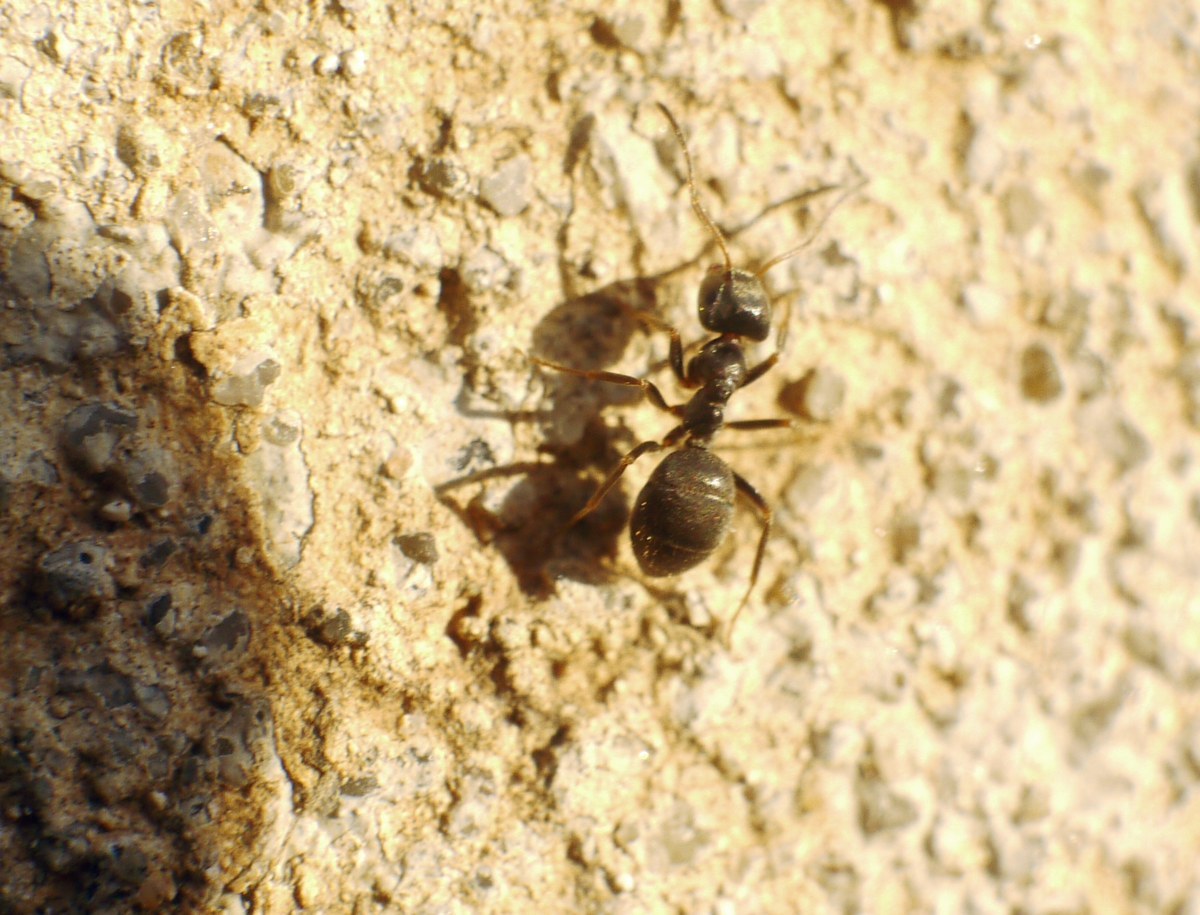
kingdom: Animalia
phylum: Arthropoda
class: Insecta
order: Hymenoptera
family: Formicidae
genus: Lasius
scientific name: Lasius niger
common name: Small black ant
